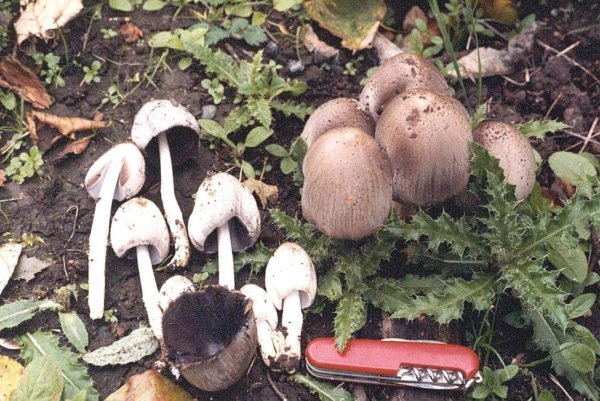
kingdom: Fungi
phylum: Basidiomycota
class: Agaricomycetes
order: Agaricales
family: Psathyrellaceae
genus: Coprinopsis
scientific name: Coprinopsis atramentaria
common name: Common ink-cap
